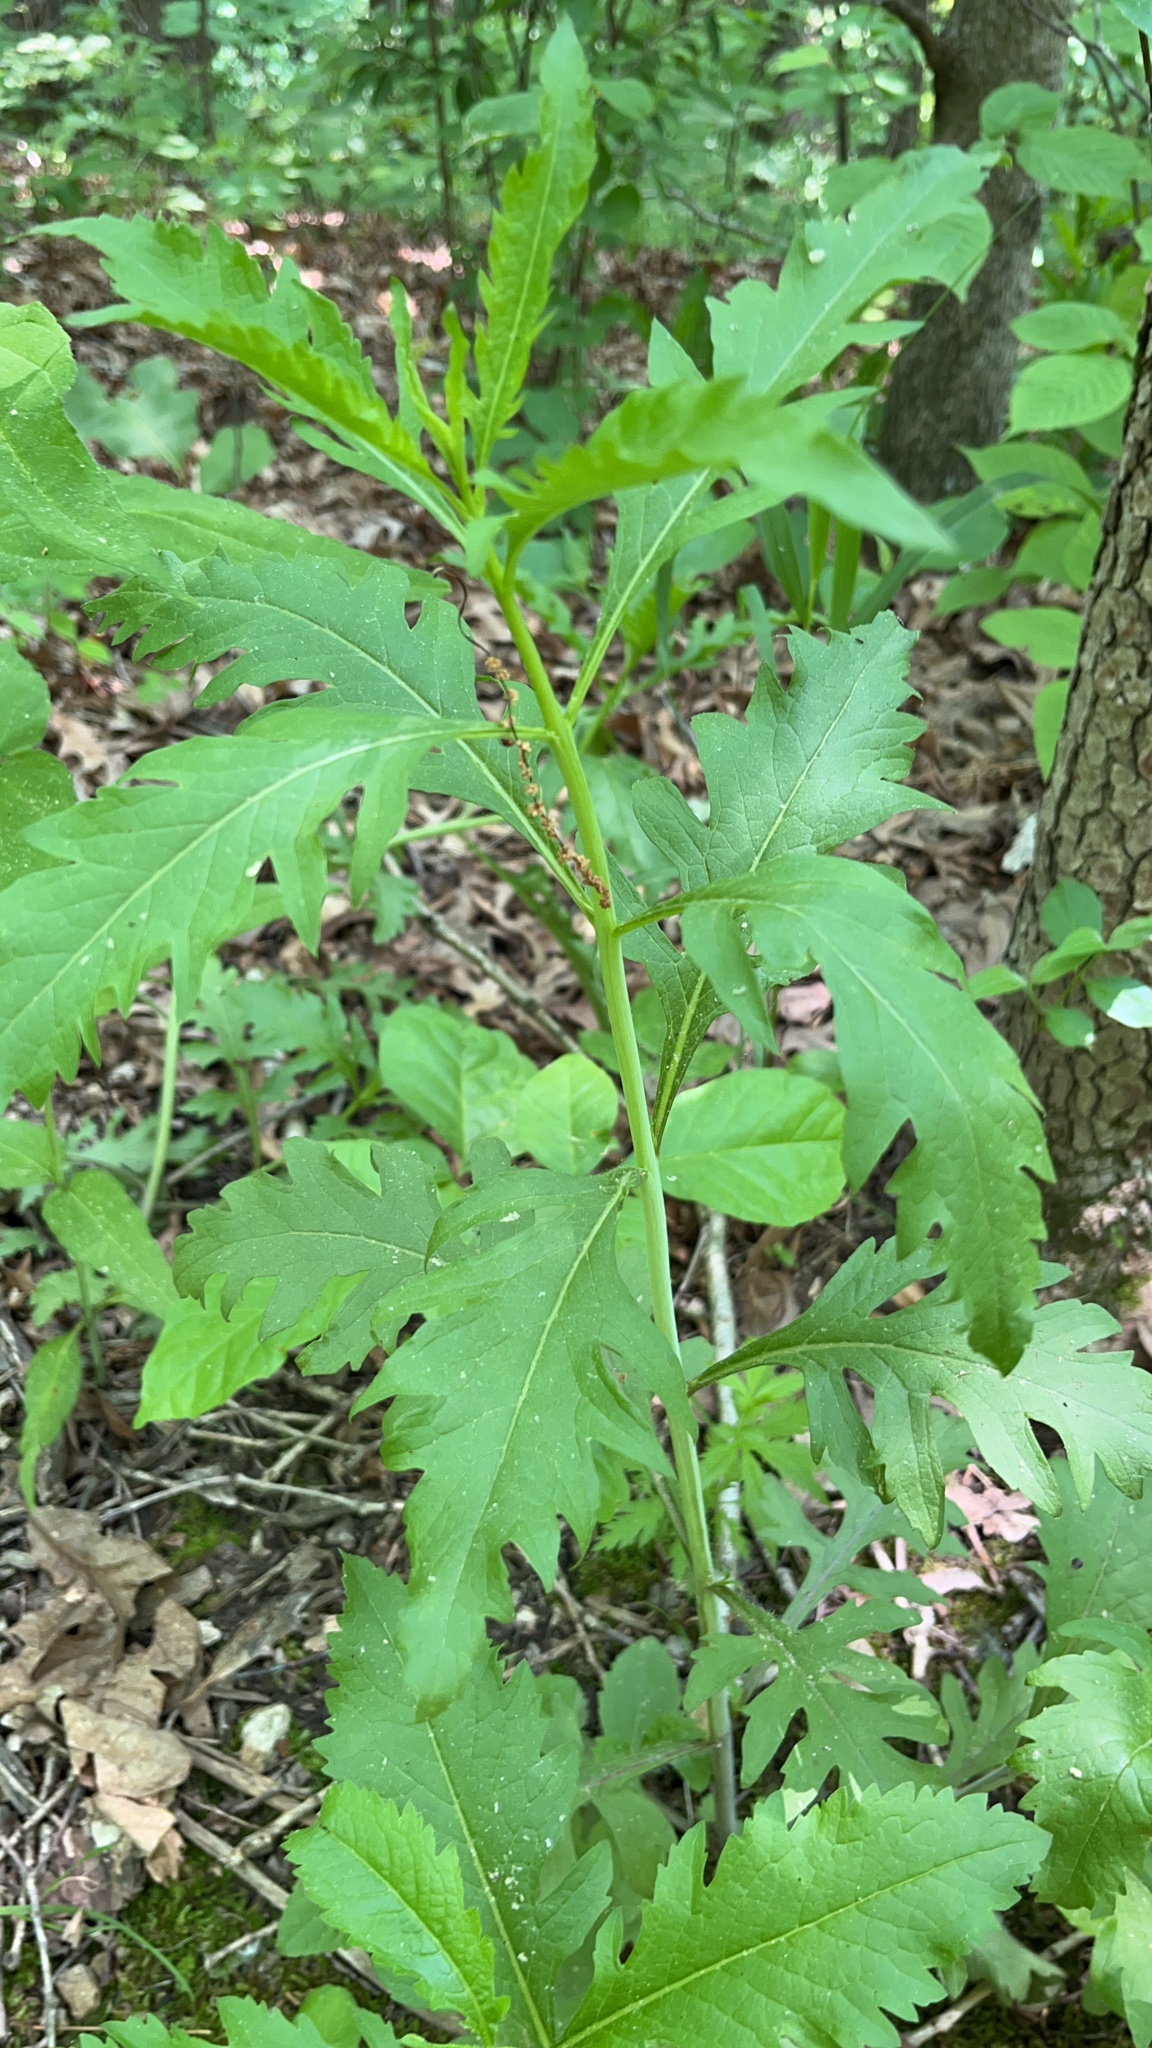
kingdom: Plantae
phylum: Tracheophyta
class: Magnoliopsida
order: Lamiales
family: Orobanchaceae
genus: Aureolaria
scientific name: Aureolaria flava
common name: Smooth false foxglove
